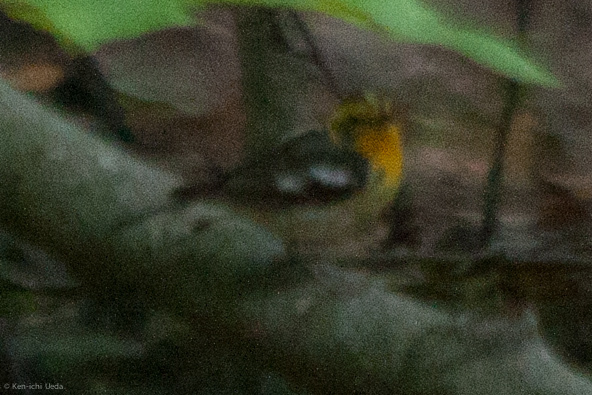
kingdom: Animalia
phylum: Chordata
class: Aves
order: Passeriformes
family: Parulidae
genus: Setophaga
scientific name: Setophaga fusca
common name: Blackburnian warbler
